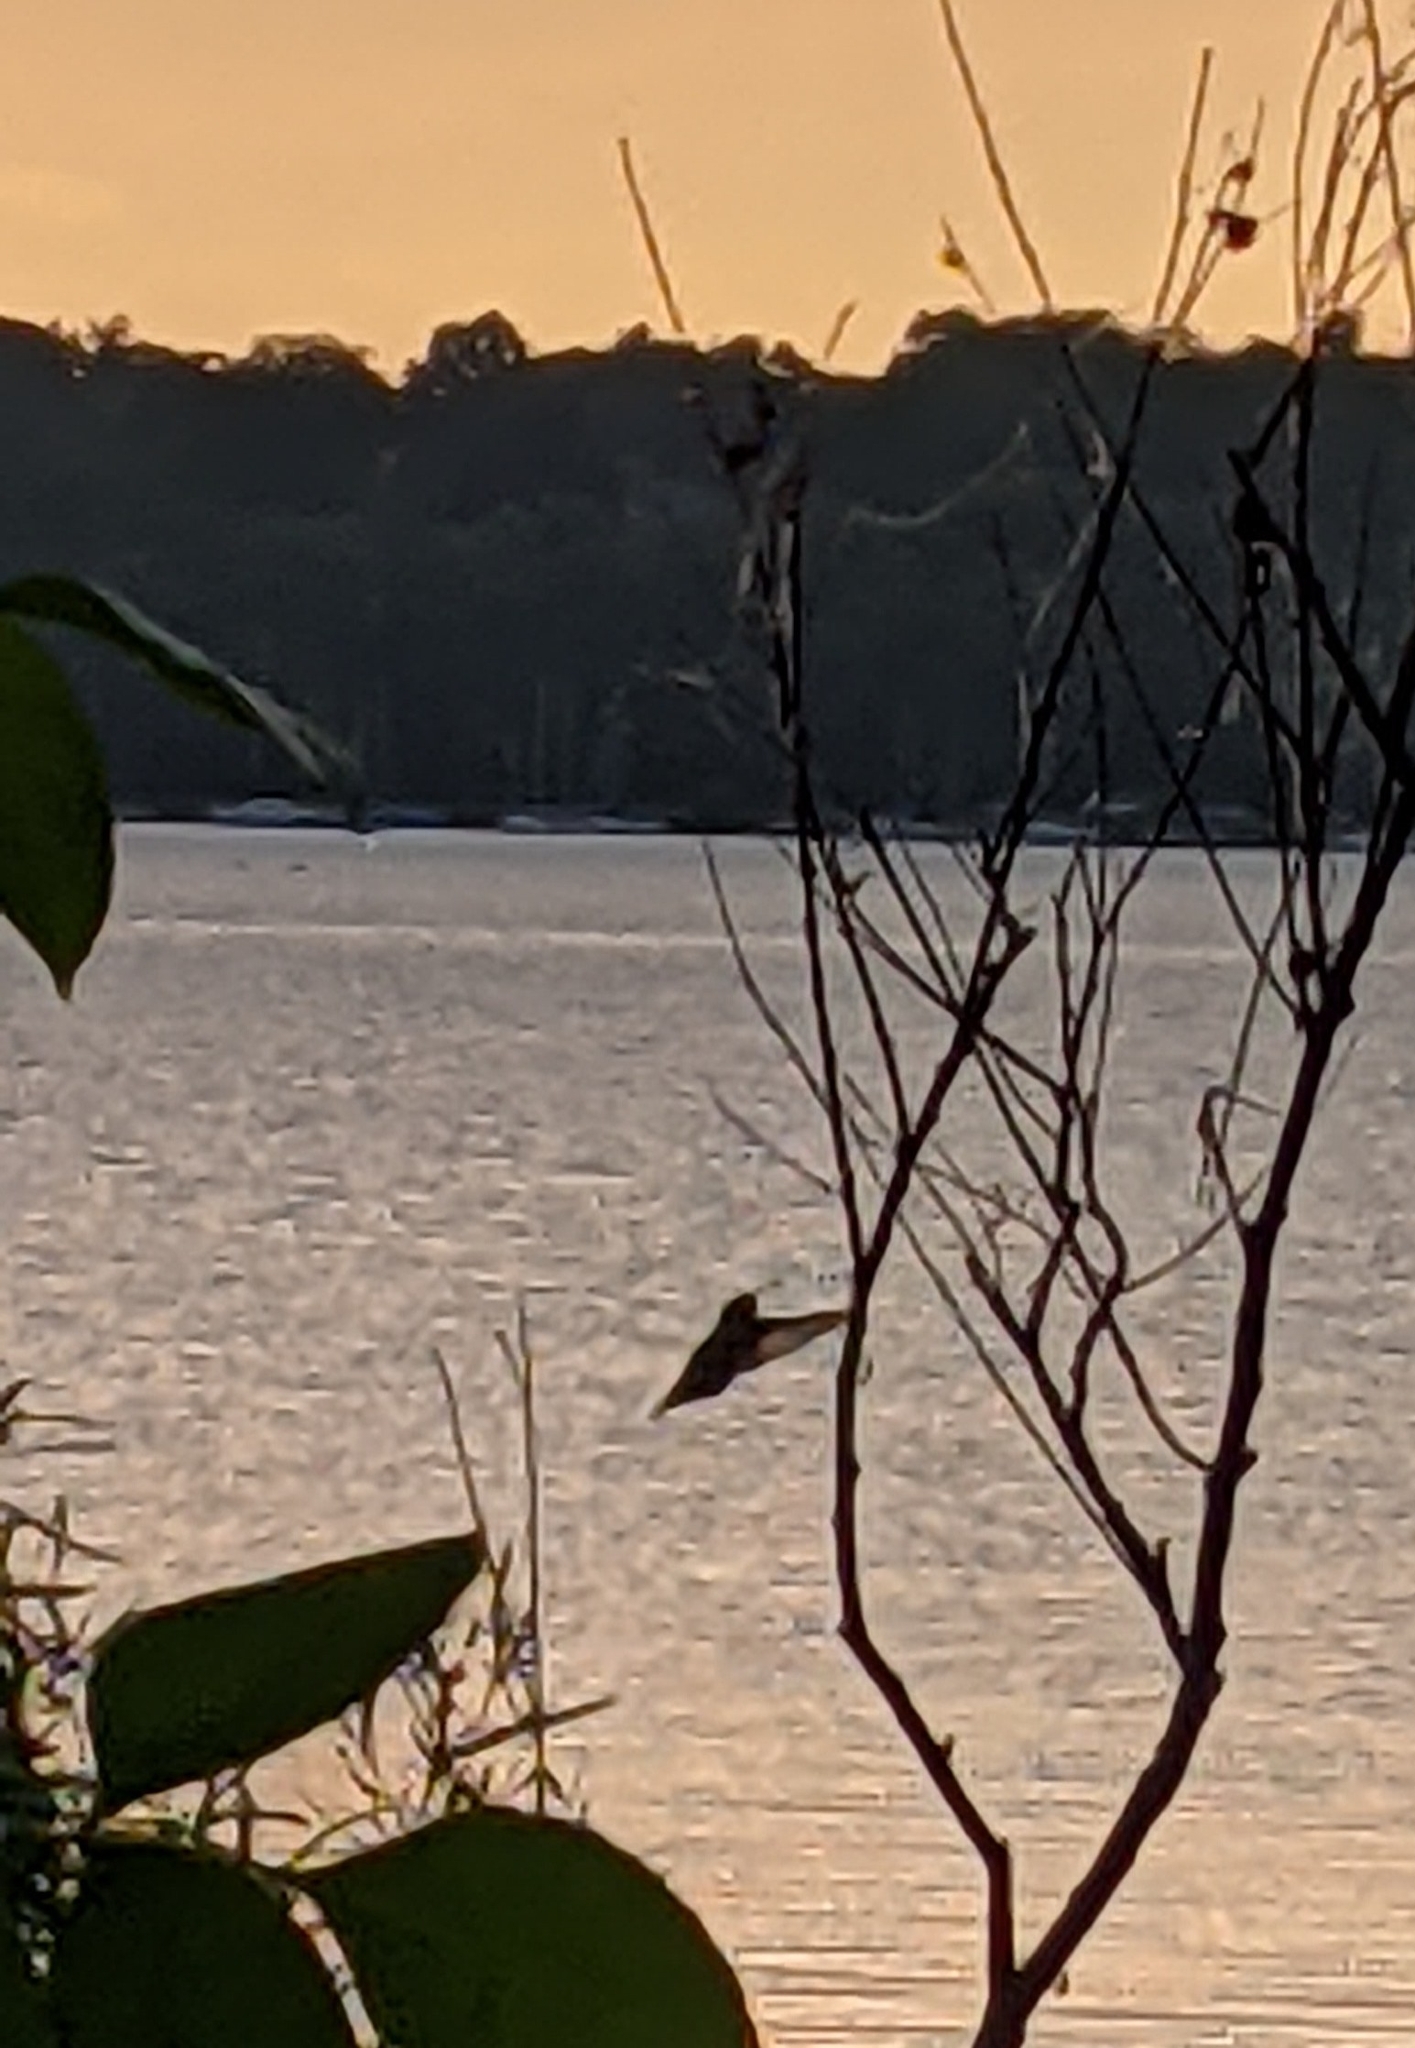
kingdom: Animalia
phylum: Chordata
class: Aves
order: Apodiformes
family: Trochilidae
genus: Archilochus
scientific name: Archilochus colubris
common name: Ruby-throated hummingbird
